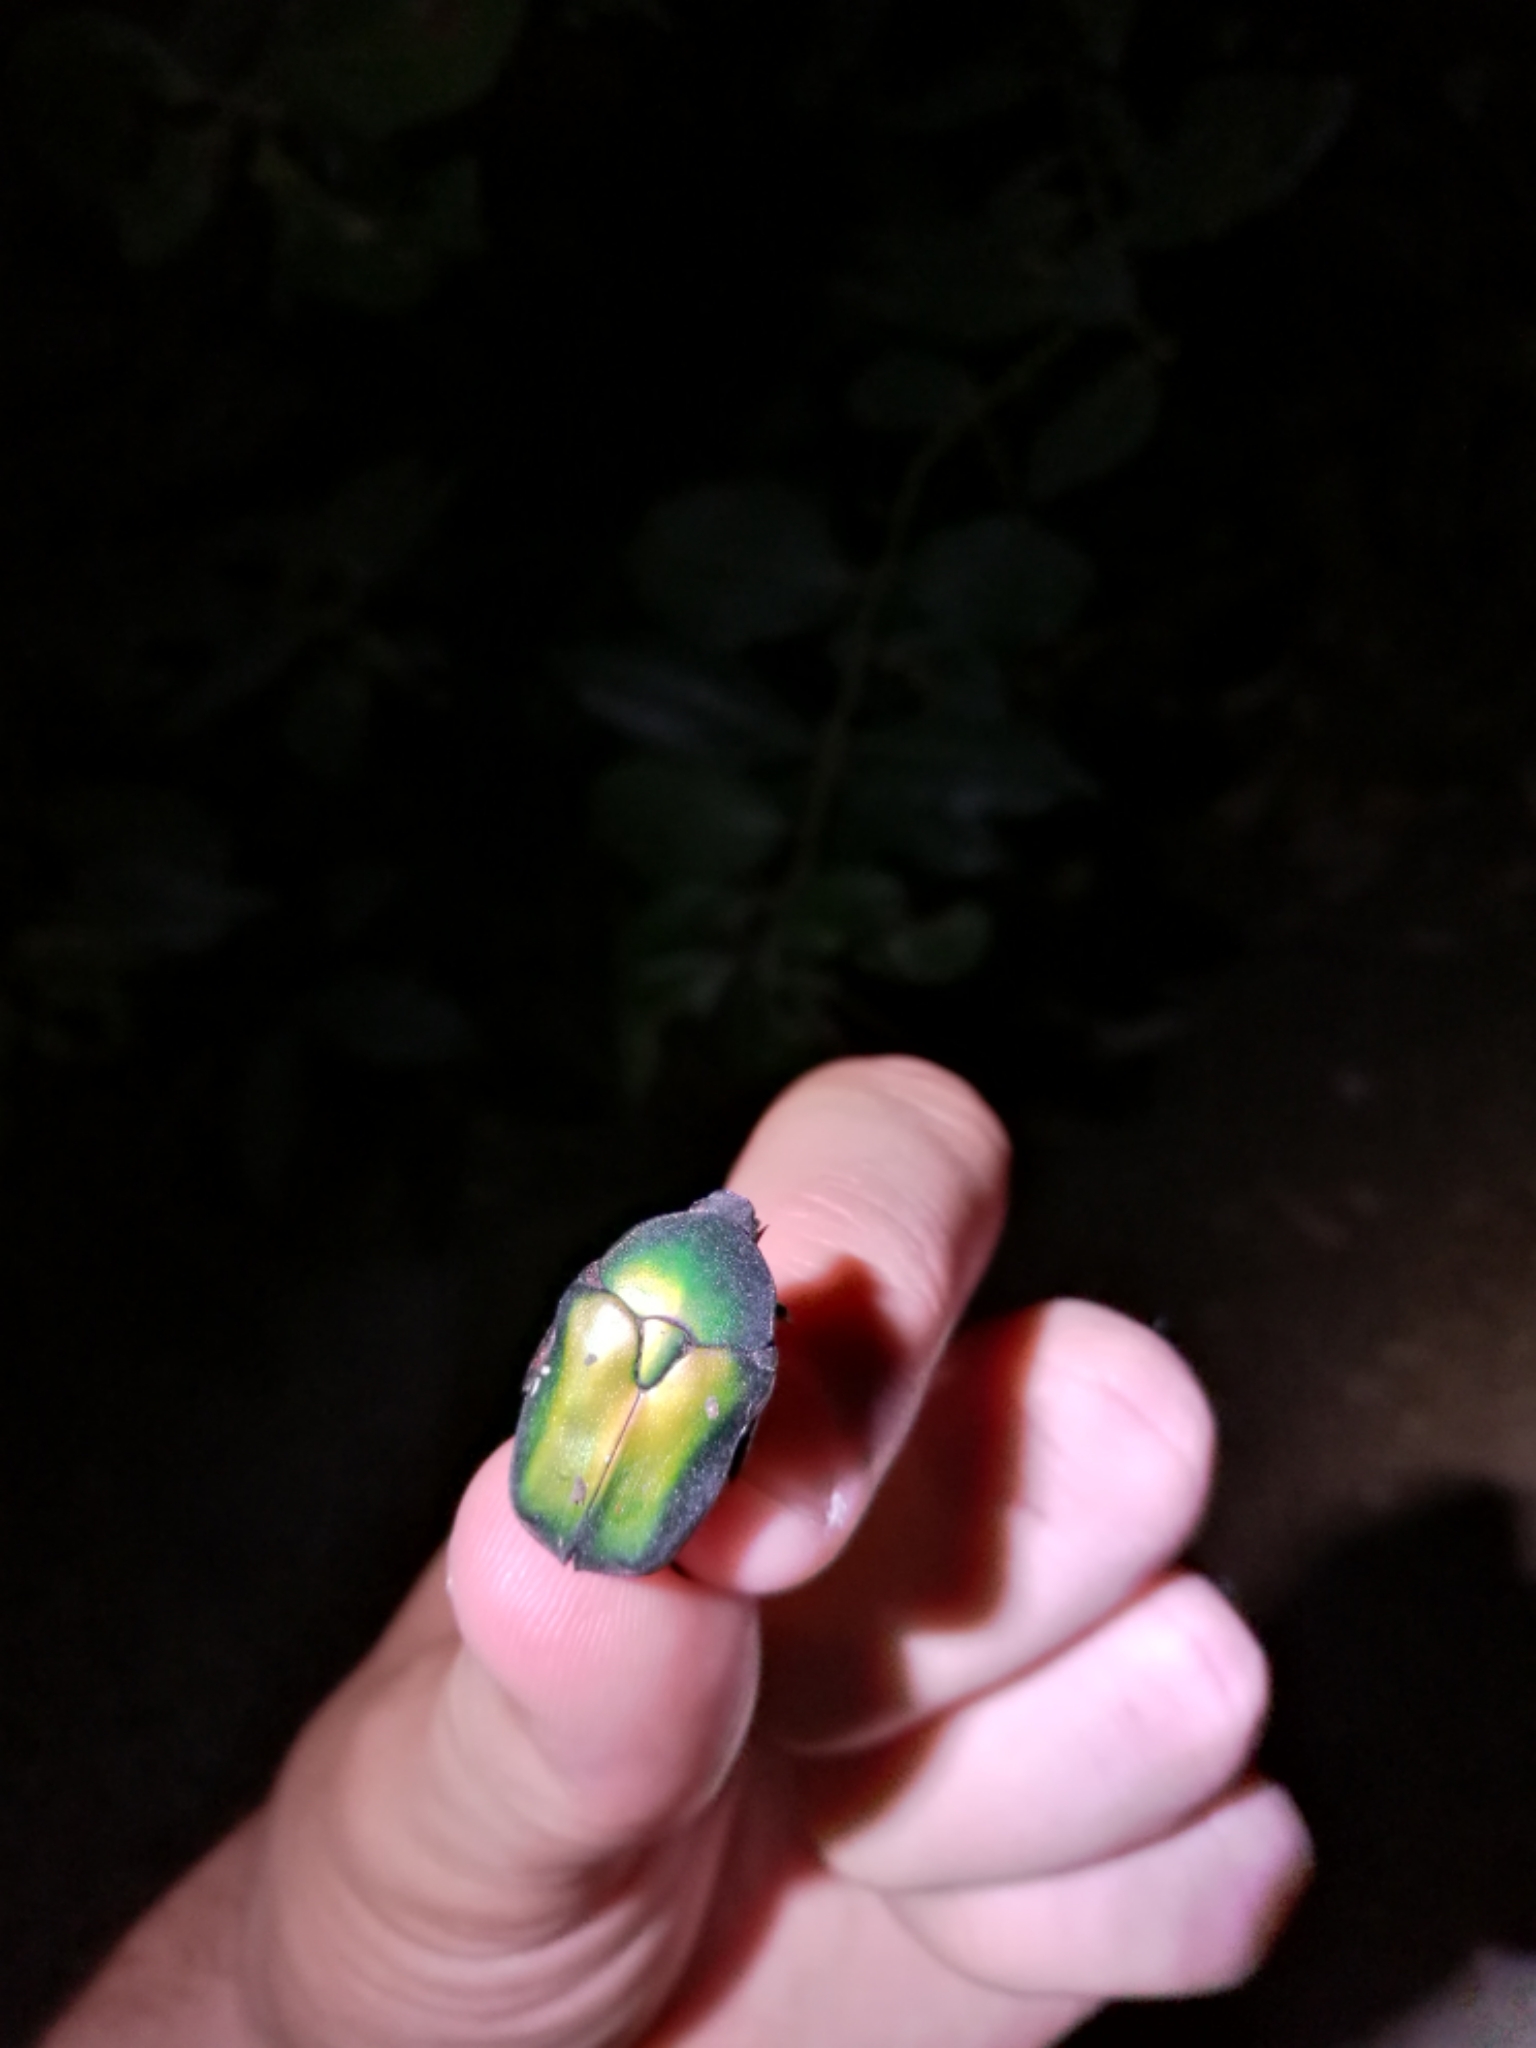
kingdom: Animalia
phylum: Arthropoda
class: Insecta
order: Coleoptera
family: Scarabaeidae
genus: Protaetia
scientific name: Protaetia cuprea
